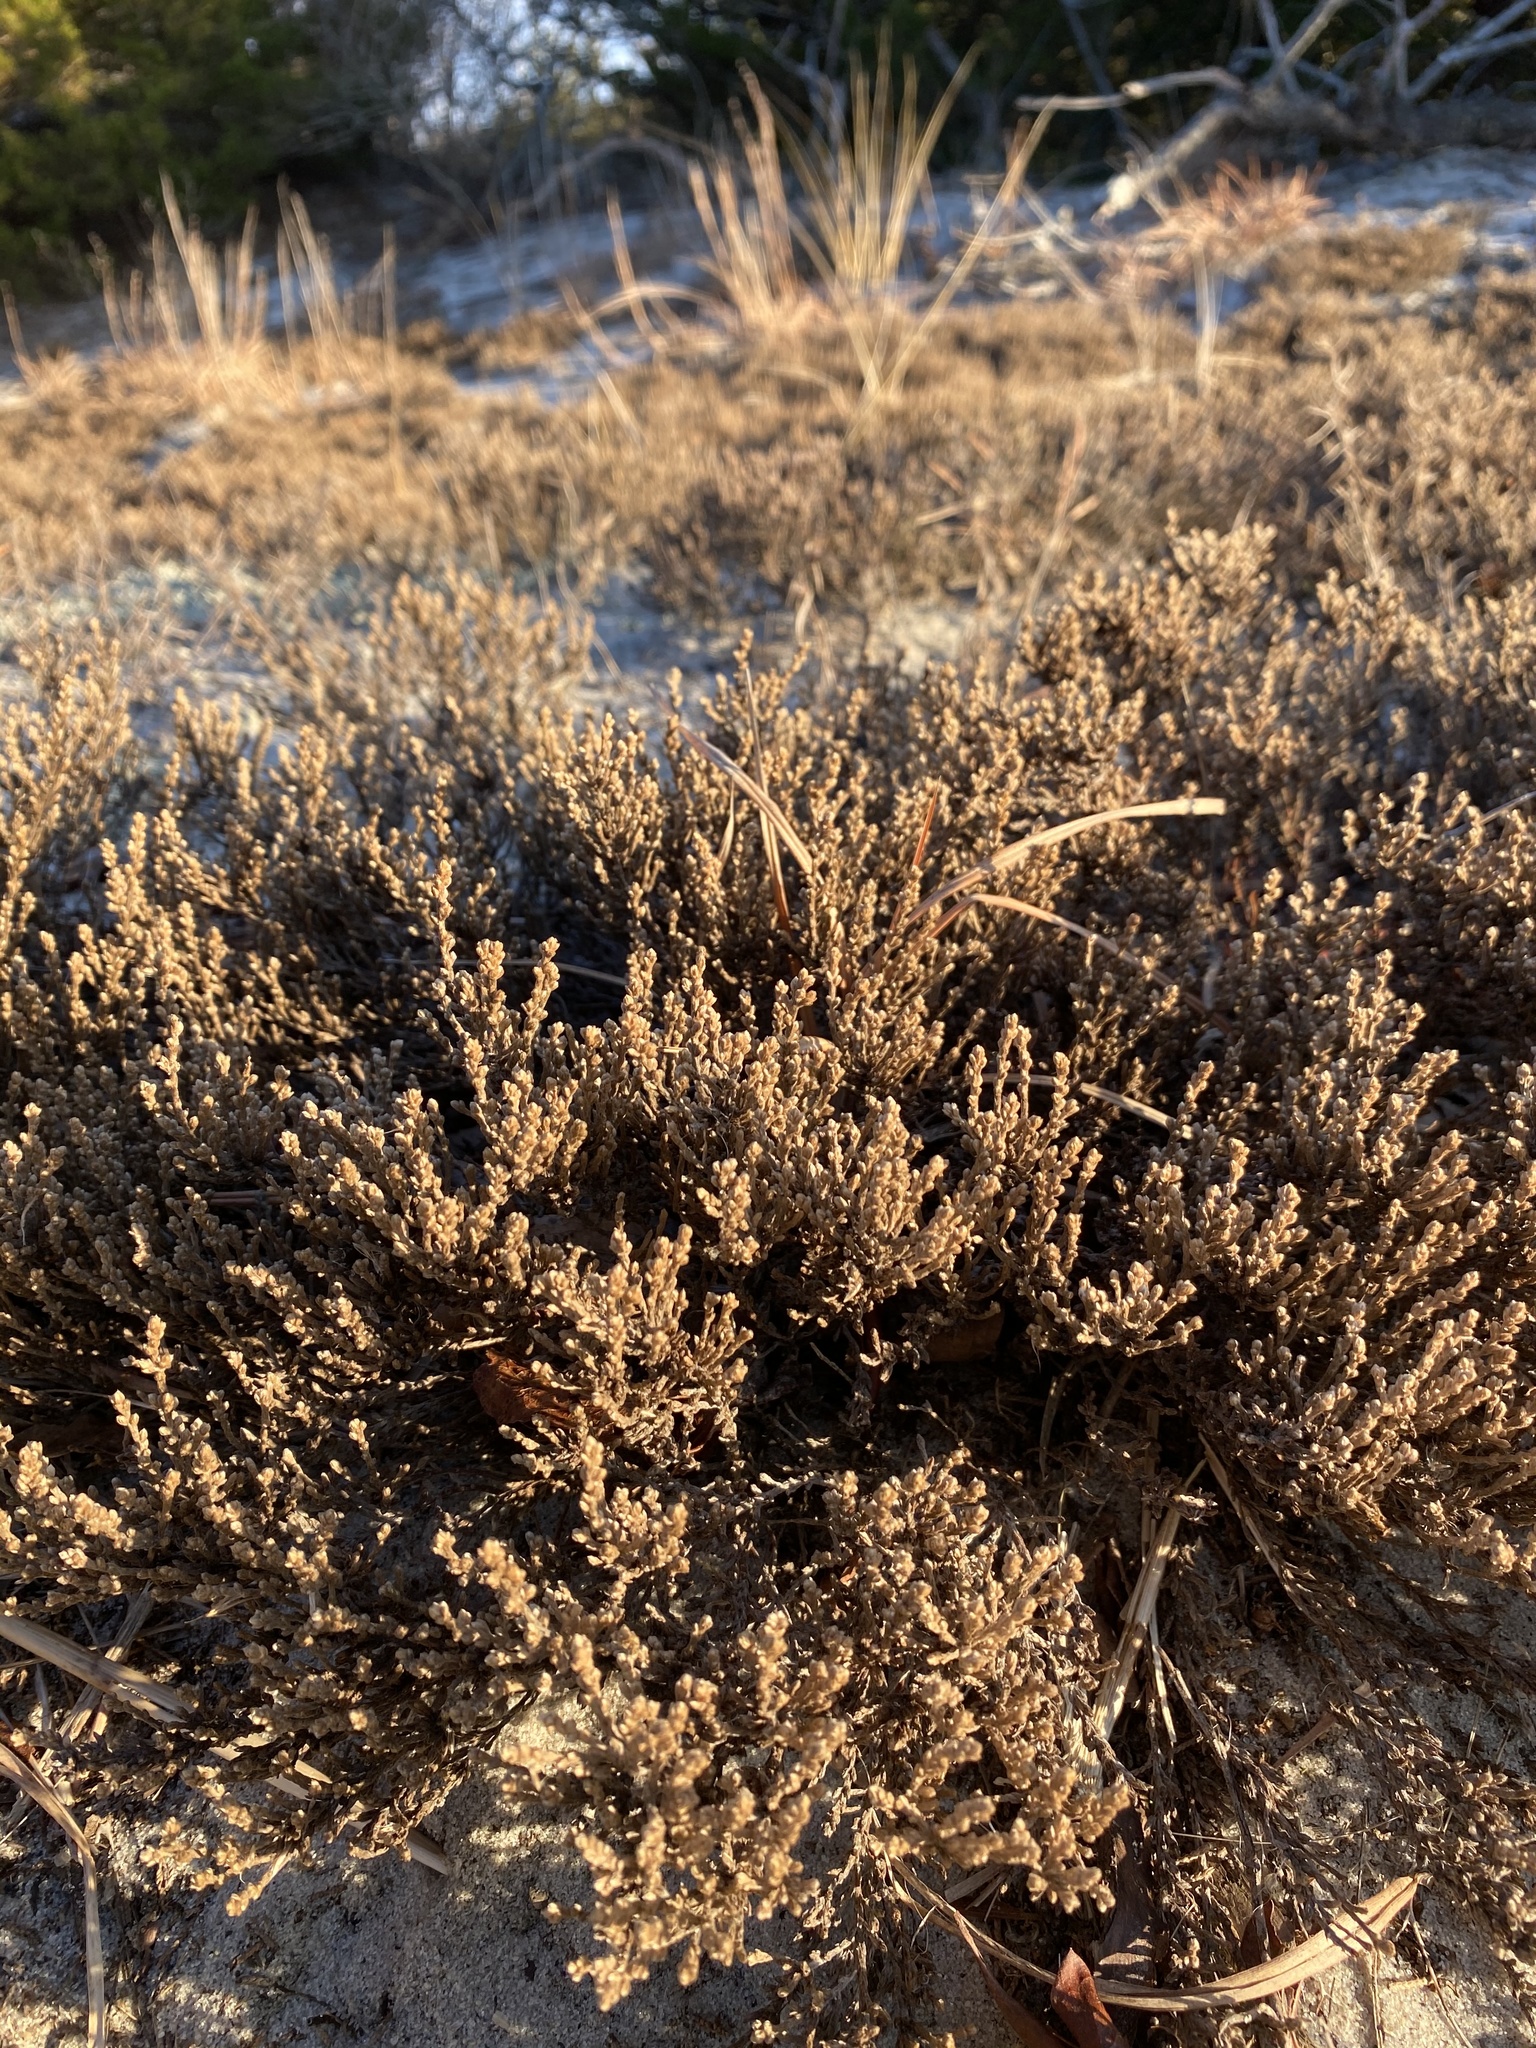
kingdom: Plantae
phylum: Tracheophyta
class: Magnoliopsida
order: Malvales
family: Cistaceae
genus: Hudsonia
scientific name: Hudsonia tomentosa
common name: Beach-heath
